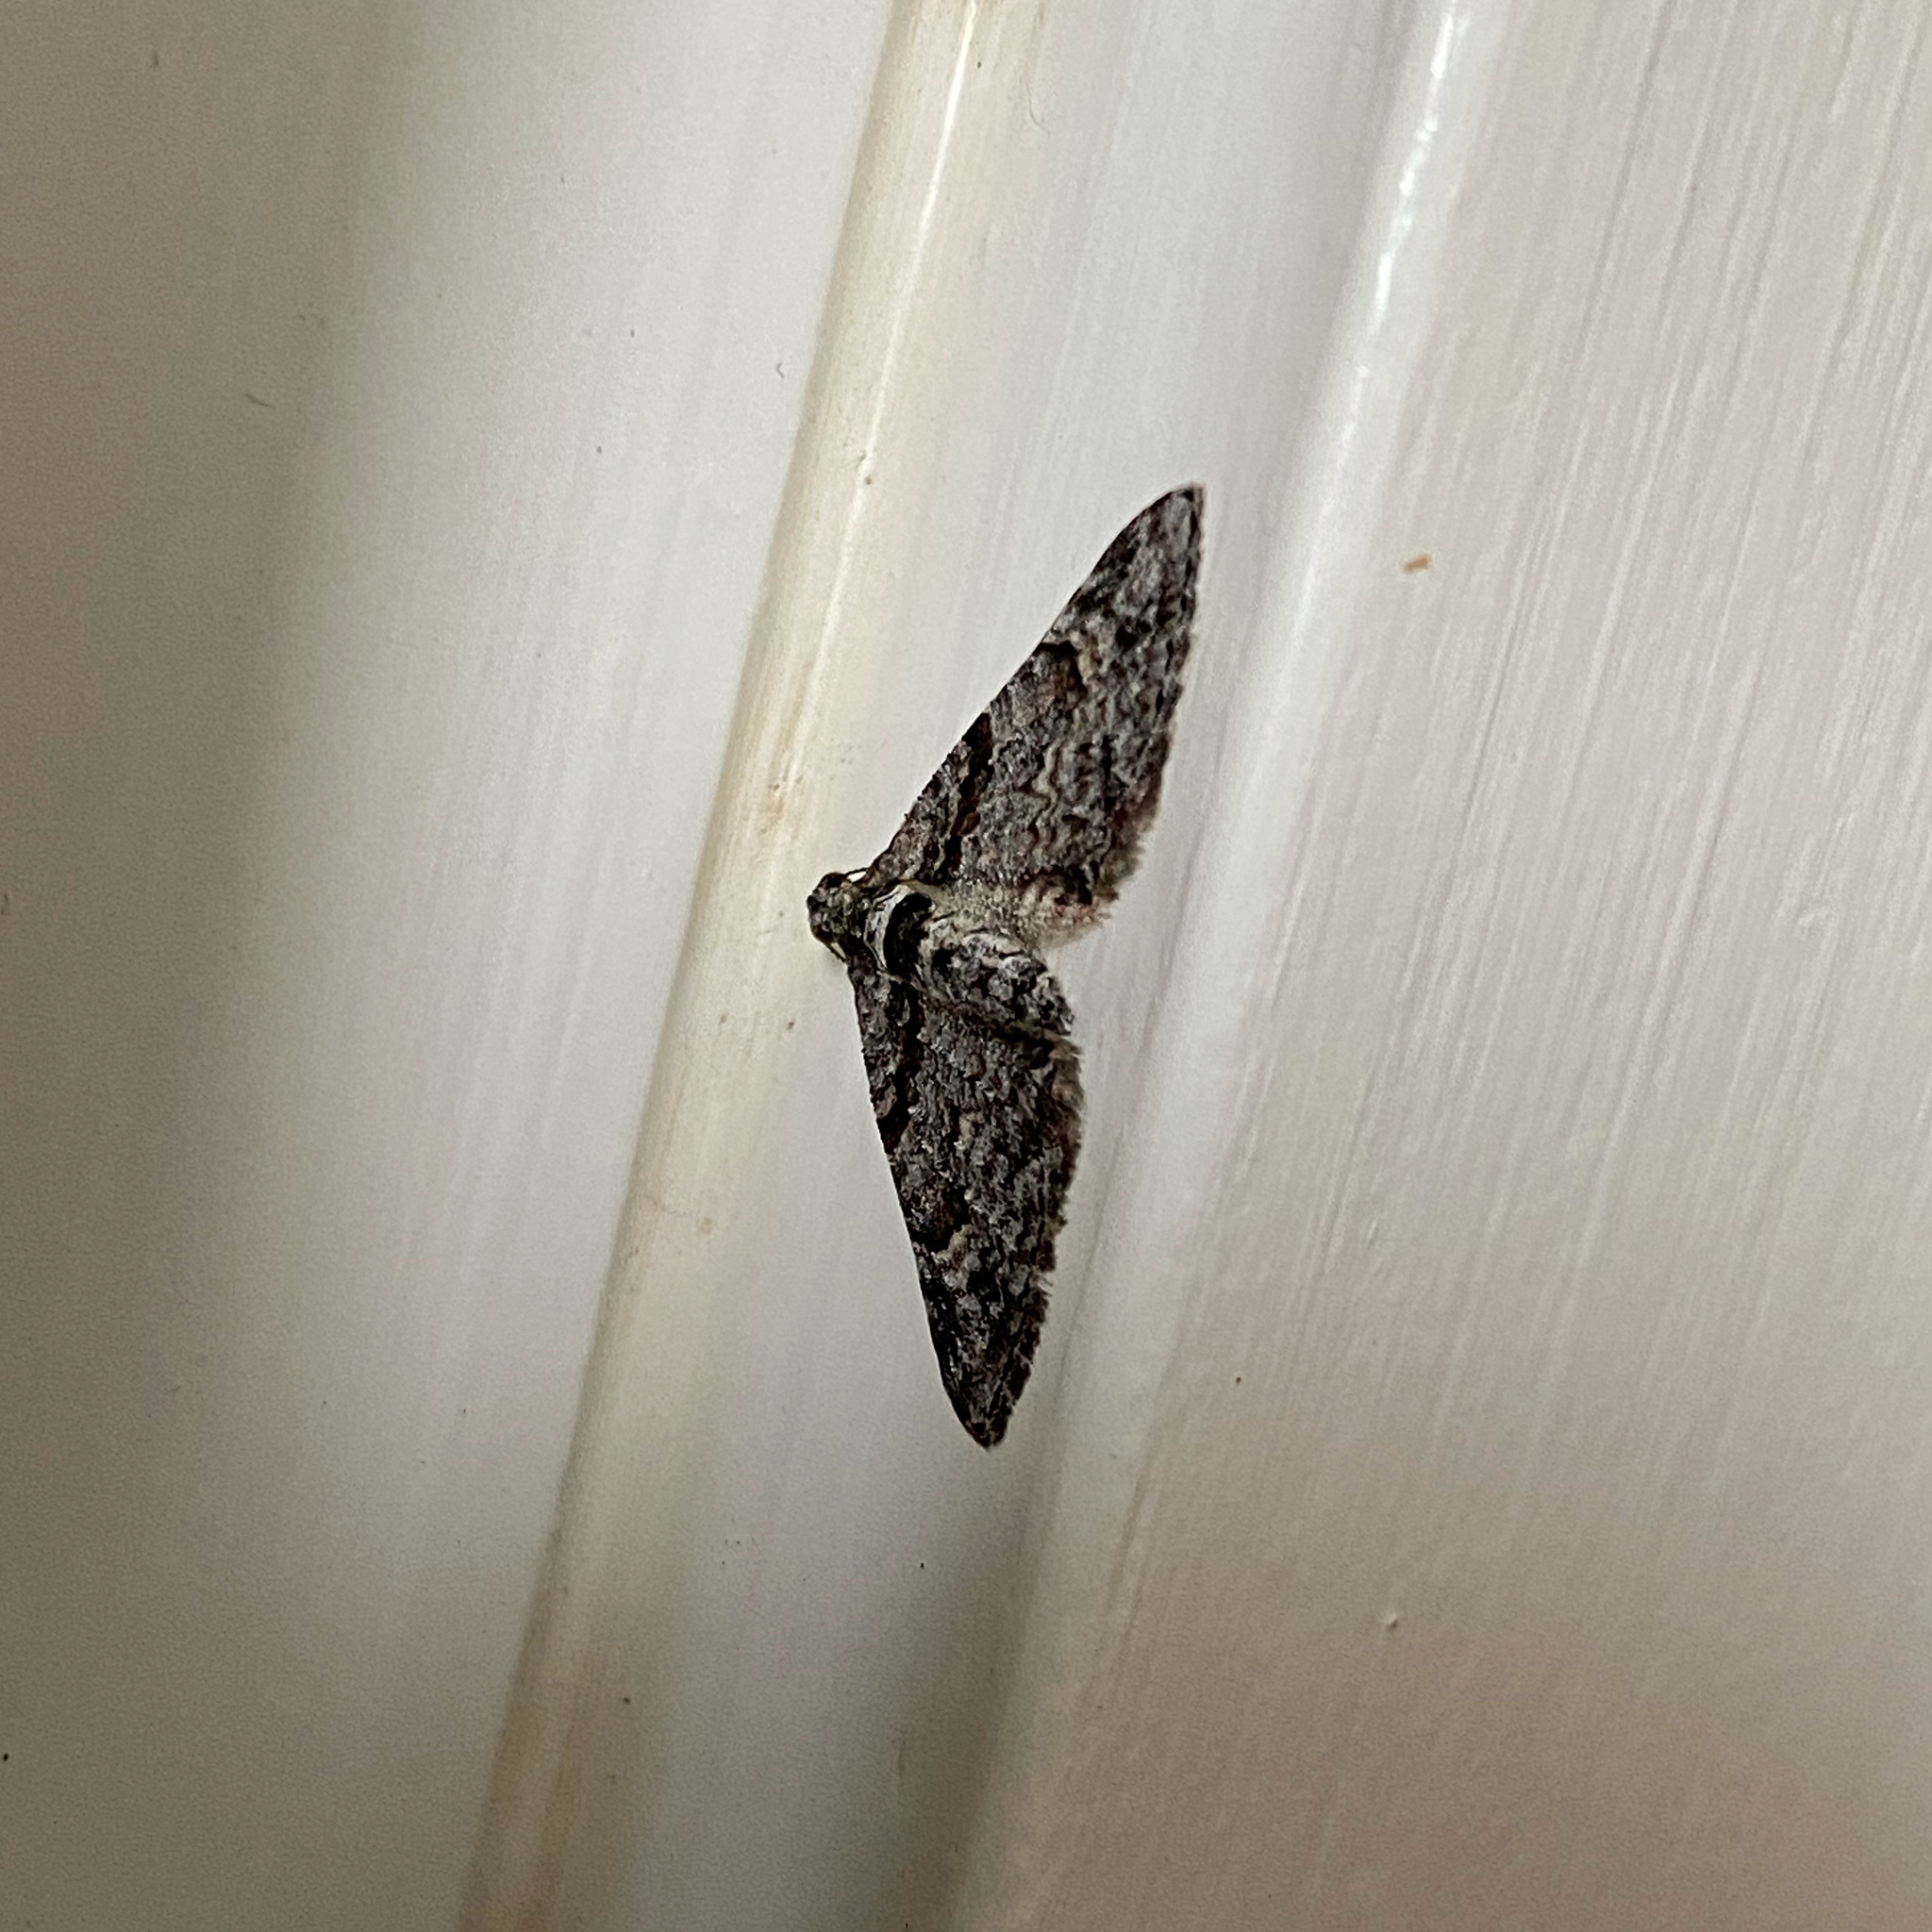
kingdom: Animalia
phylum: Arthropoda
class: Insecta
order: Lepidoptera
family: Geometridae
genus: Phrissogonus
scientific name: Phrissogonus laticostata
